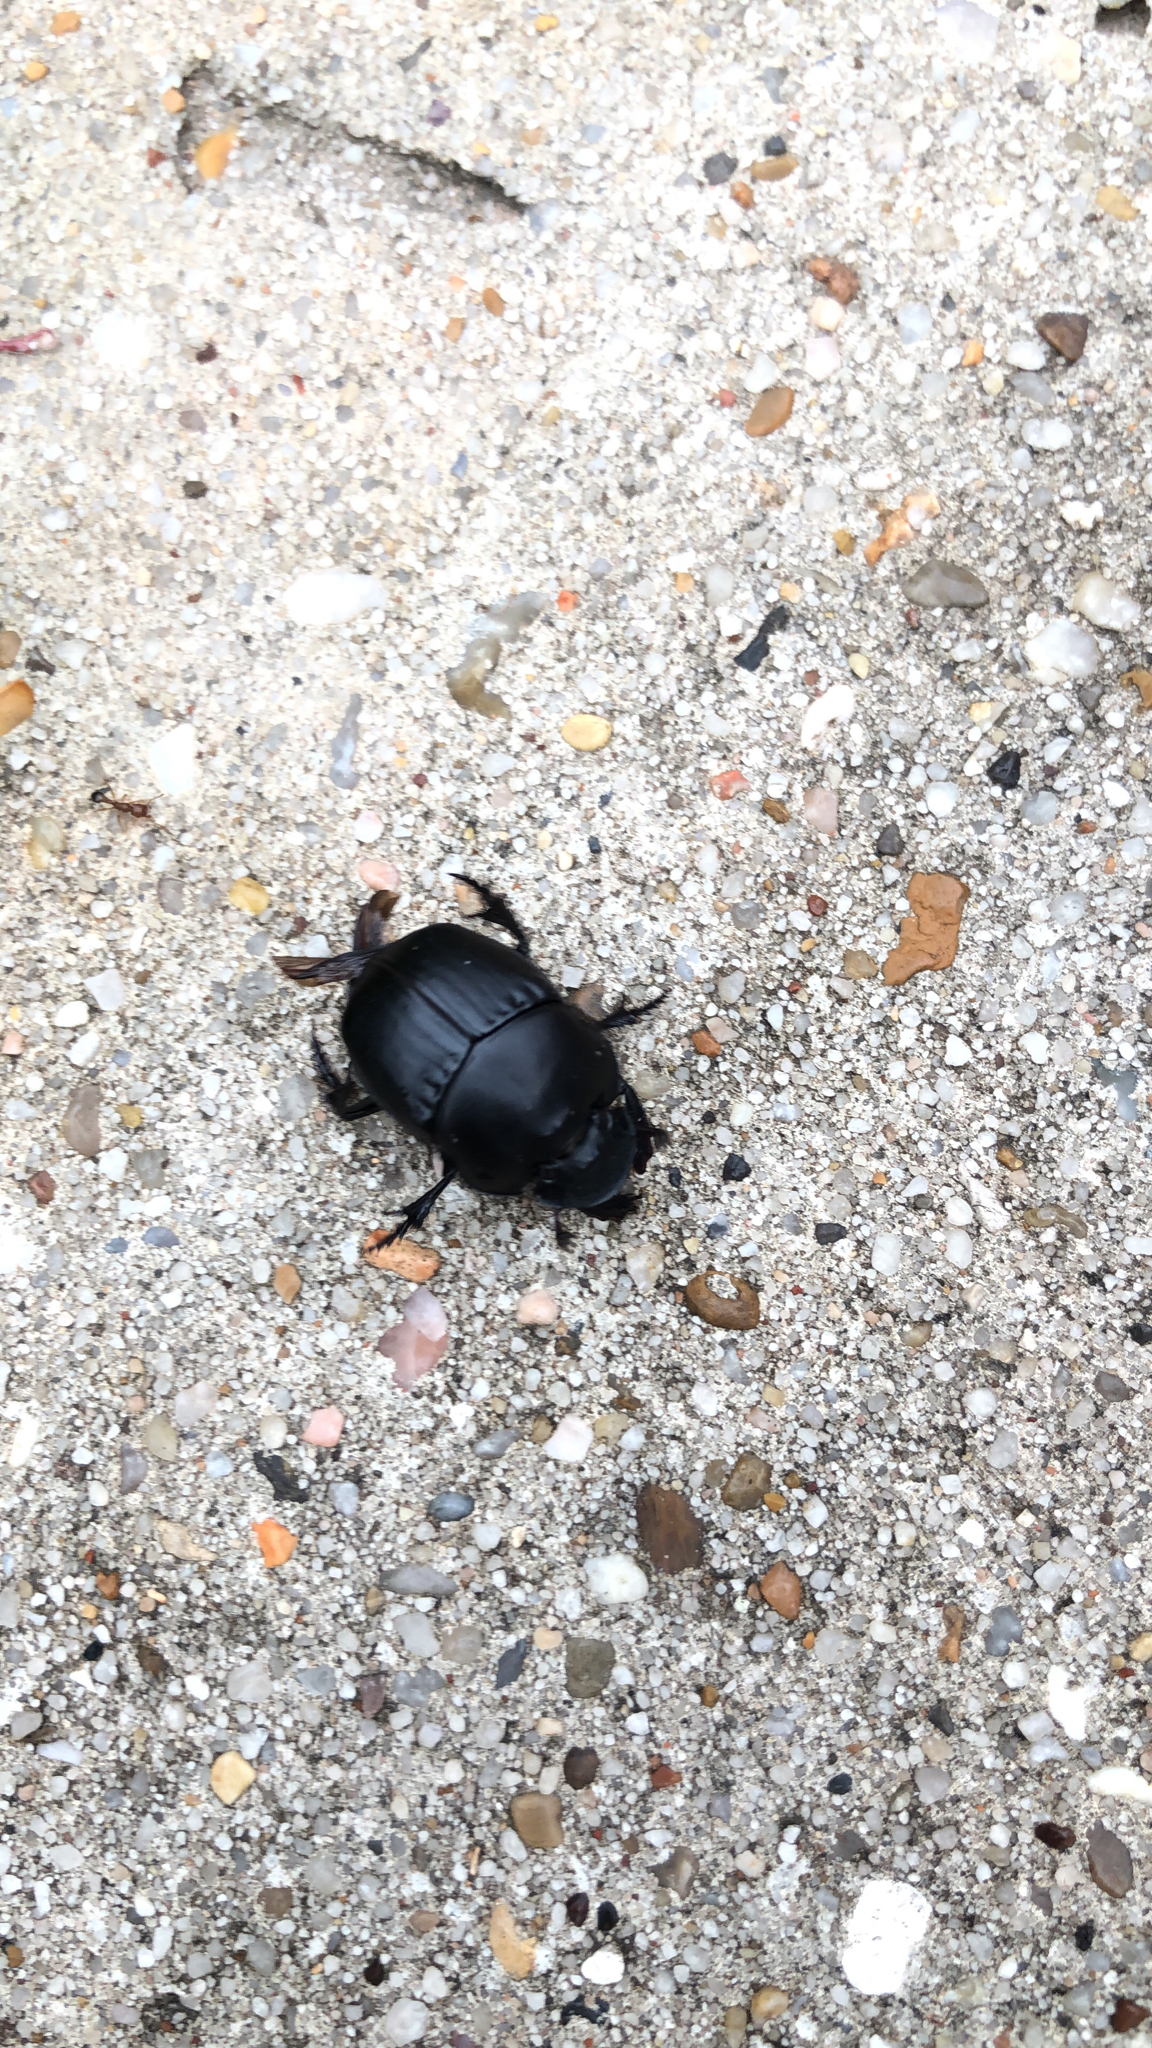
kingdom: Animalia
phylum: Arthropoda
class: Insecta
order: Coleoptera
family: Scarabaeidae
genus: Phanaeus
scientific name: Phanaeus texensis
